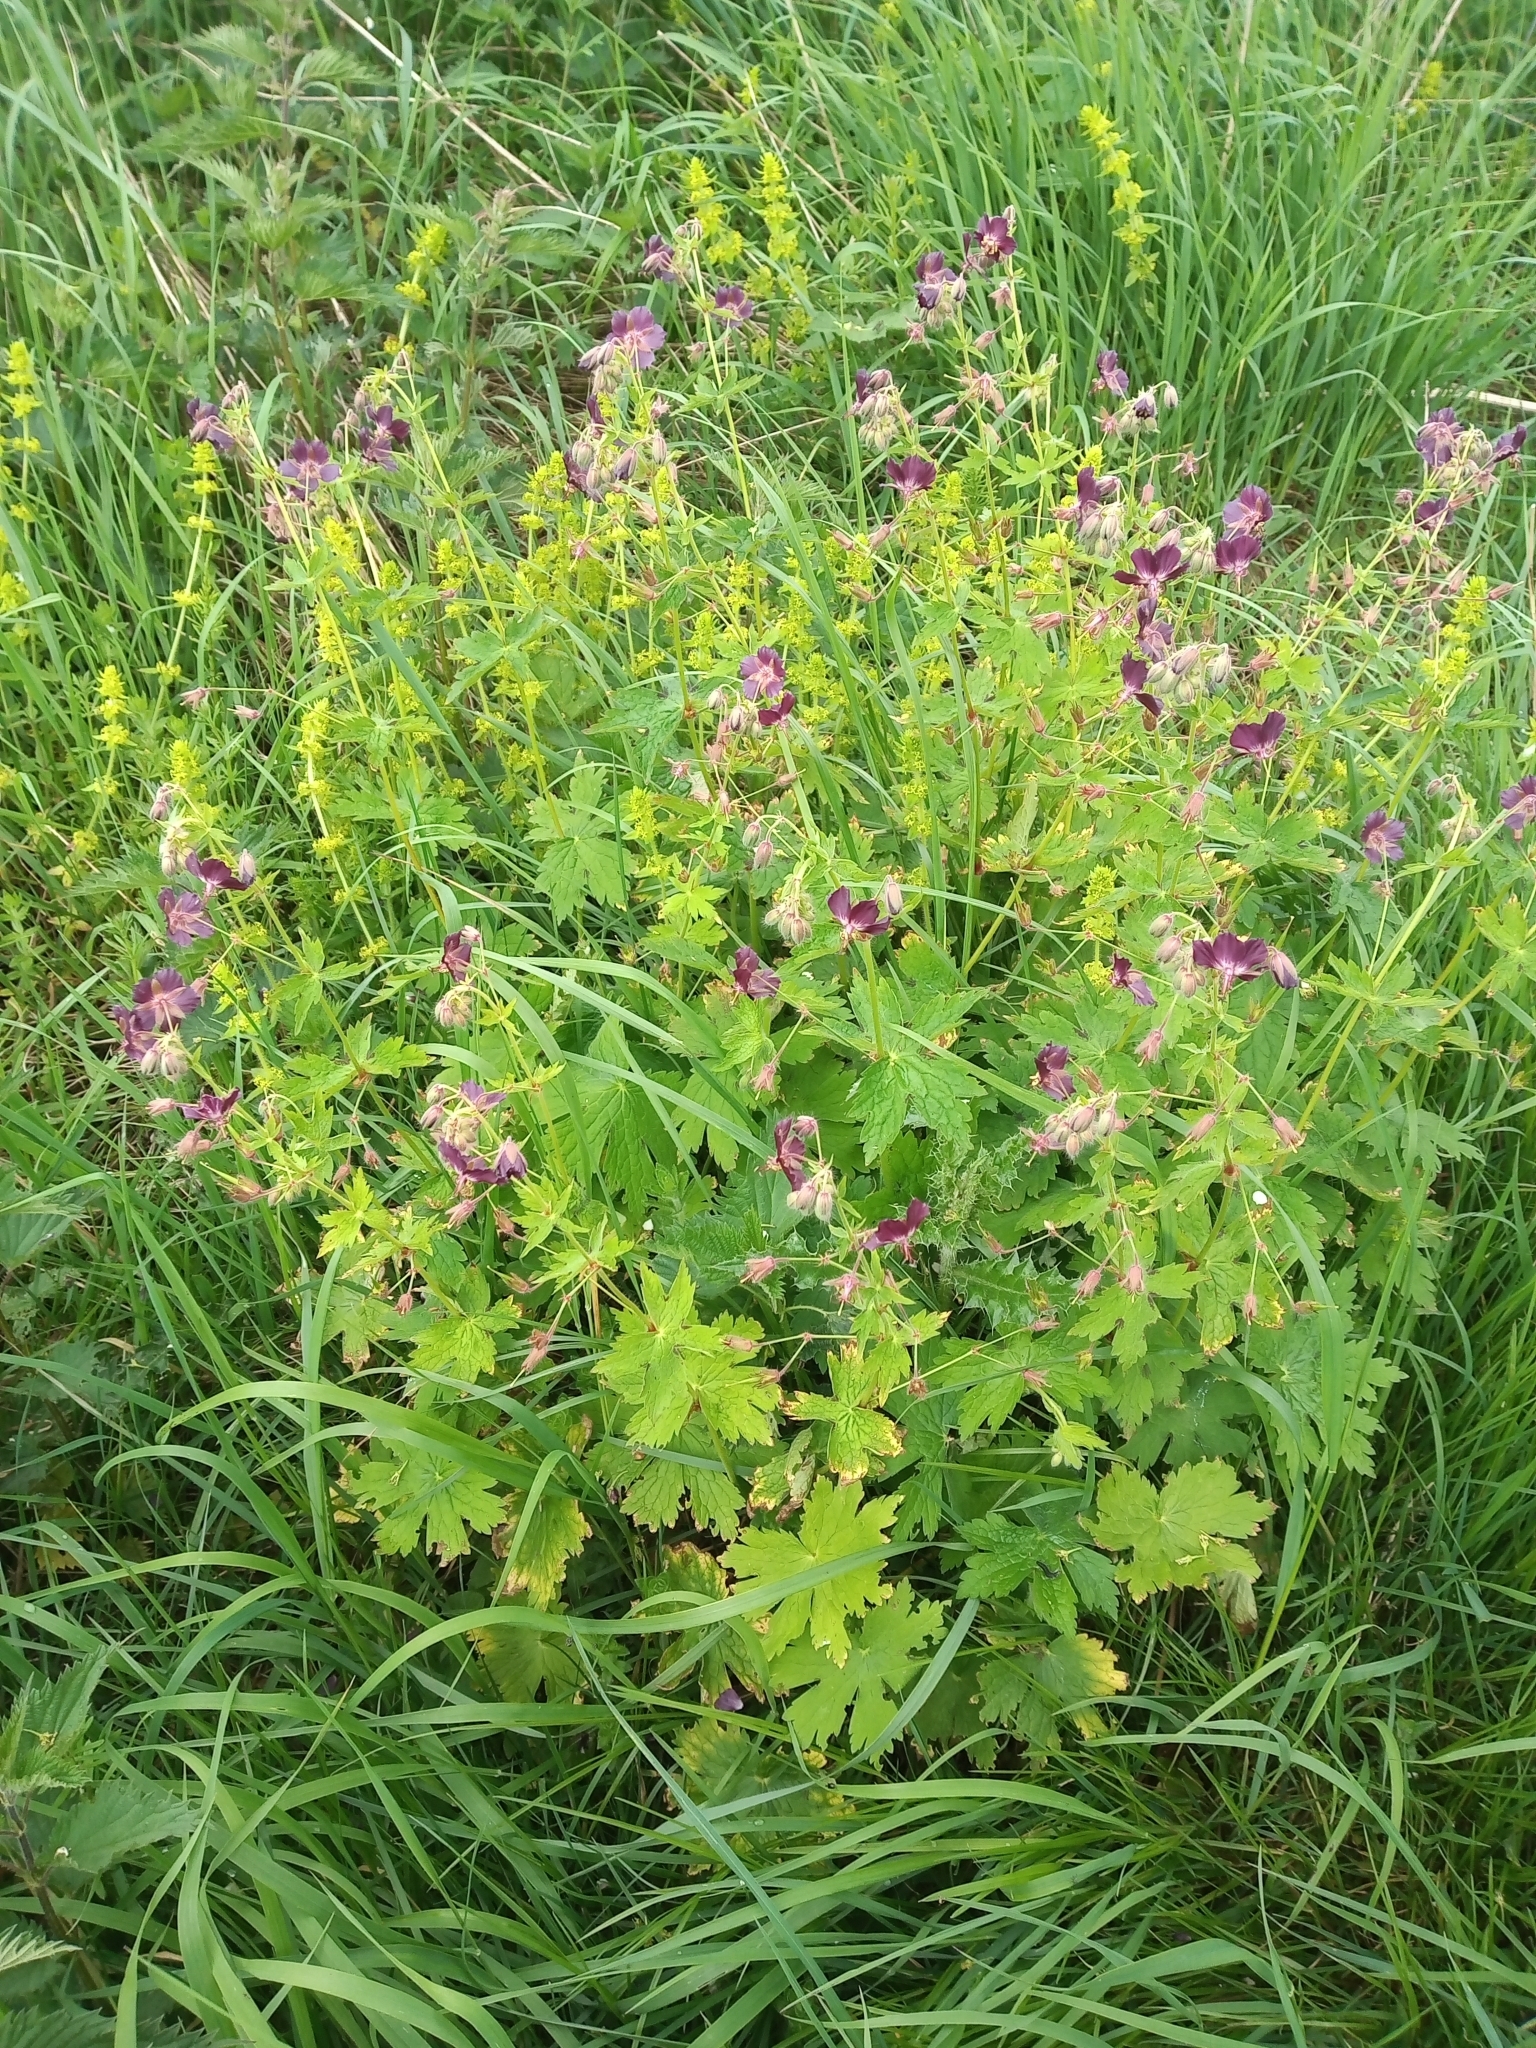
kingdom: Plantae
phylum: Tracheophyta
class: Magnoliopsida
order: Geraniales
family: Geraniaceae
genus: Geranium
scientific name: Geranium phaeum
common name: Dusky crane's-bill
